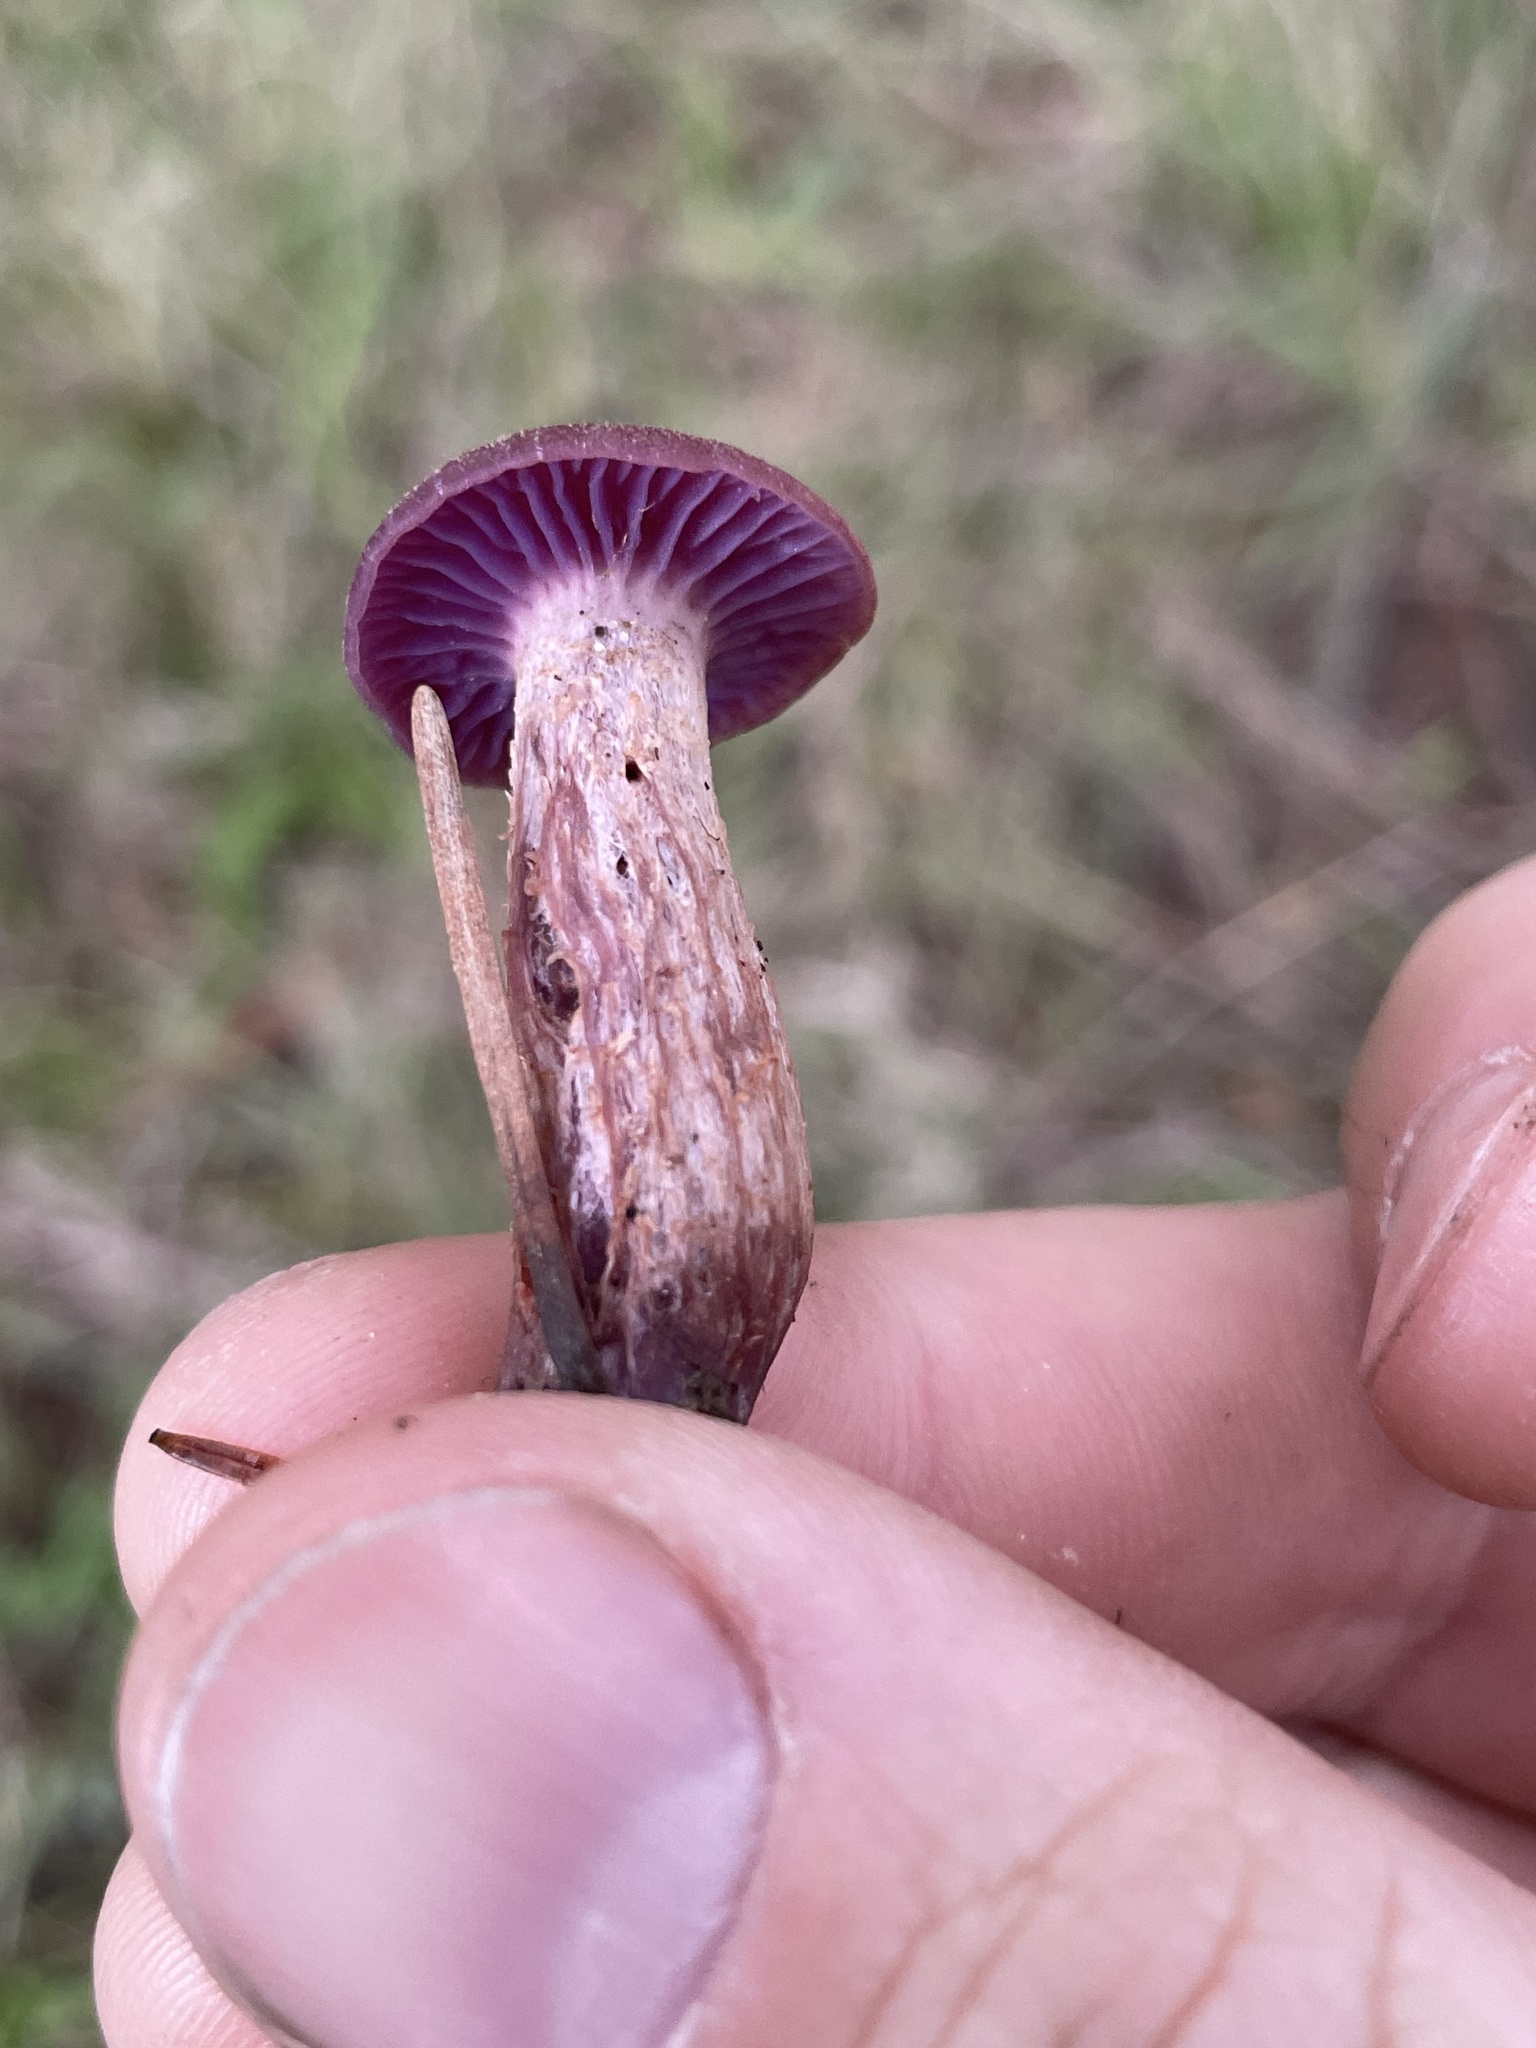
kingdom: Fungi
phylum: Basidiomycota
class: Agaricomycetes
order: Agaricales
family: Hydnangiaceae
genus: Laccaria
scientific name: Laccaria amethysteo-occidentalis
